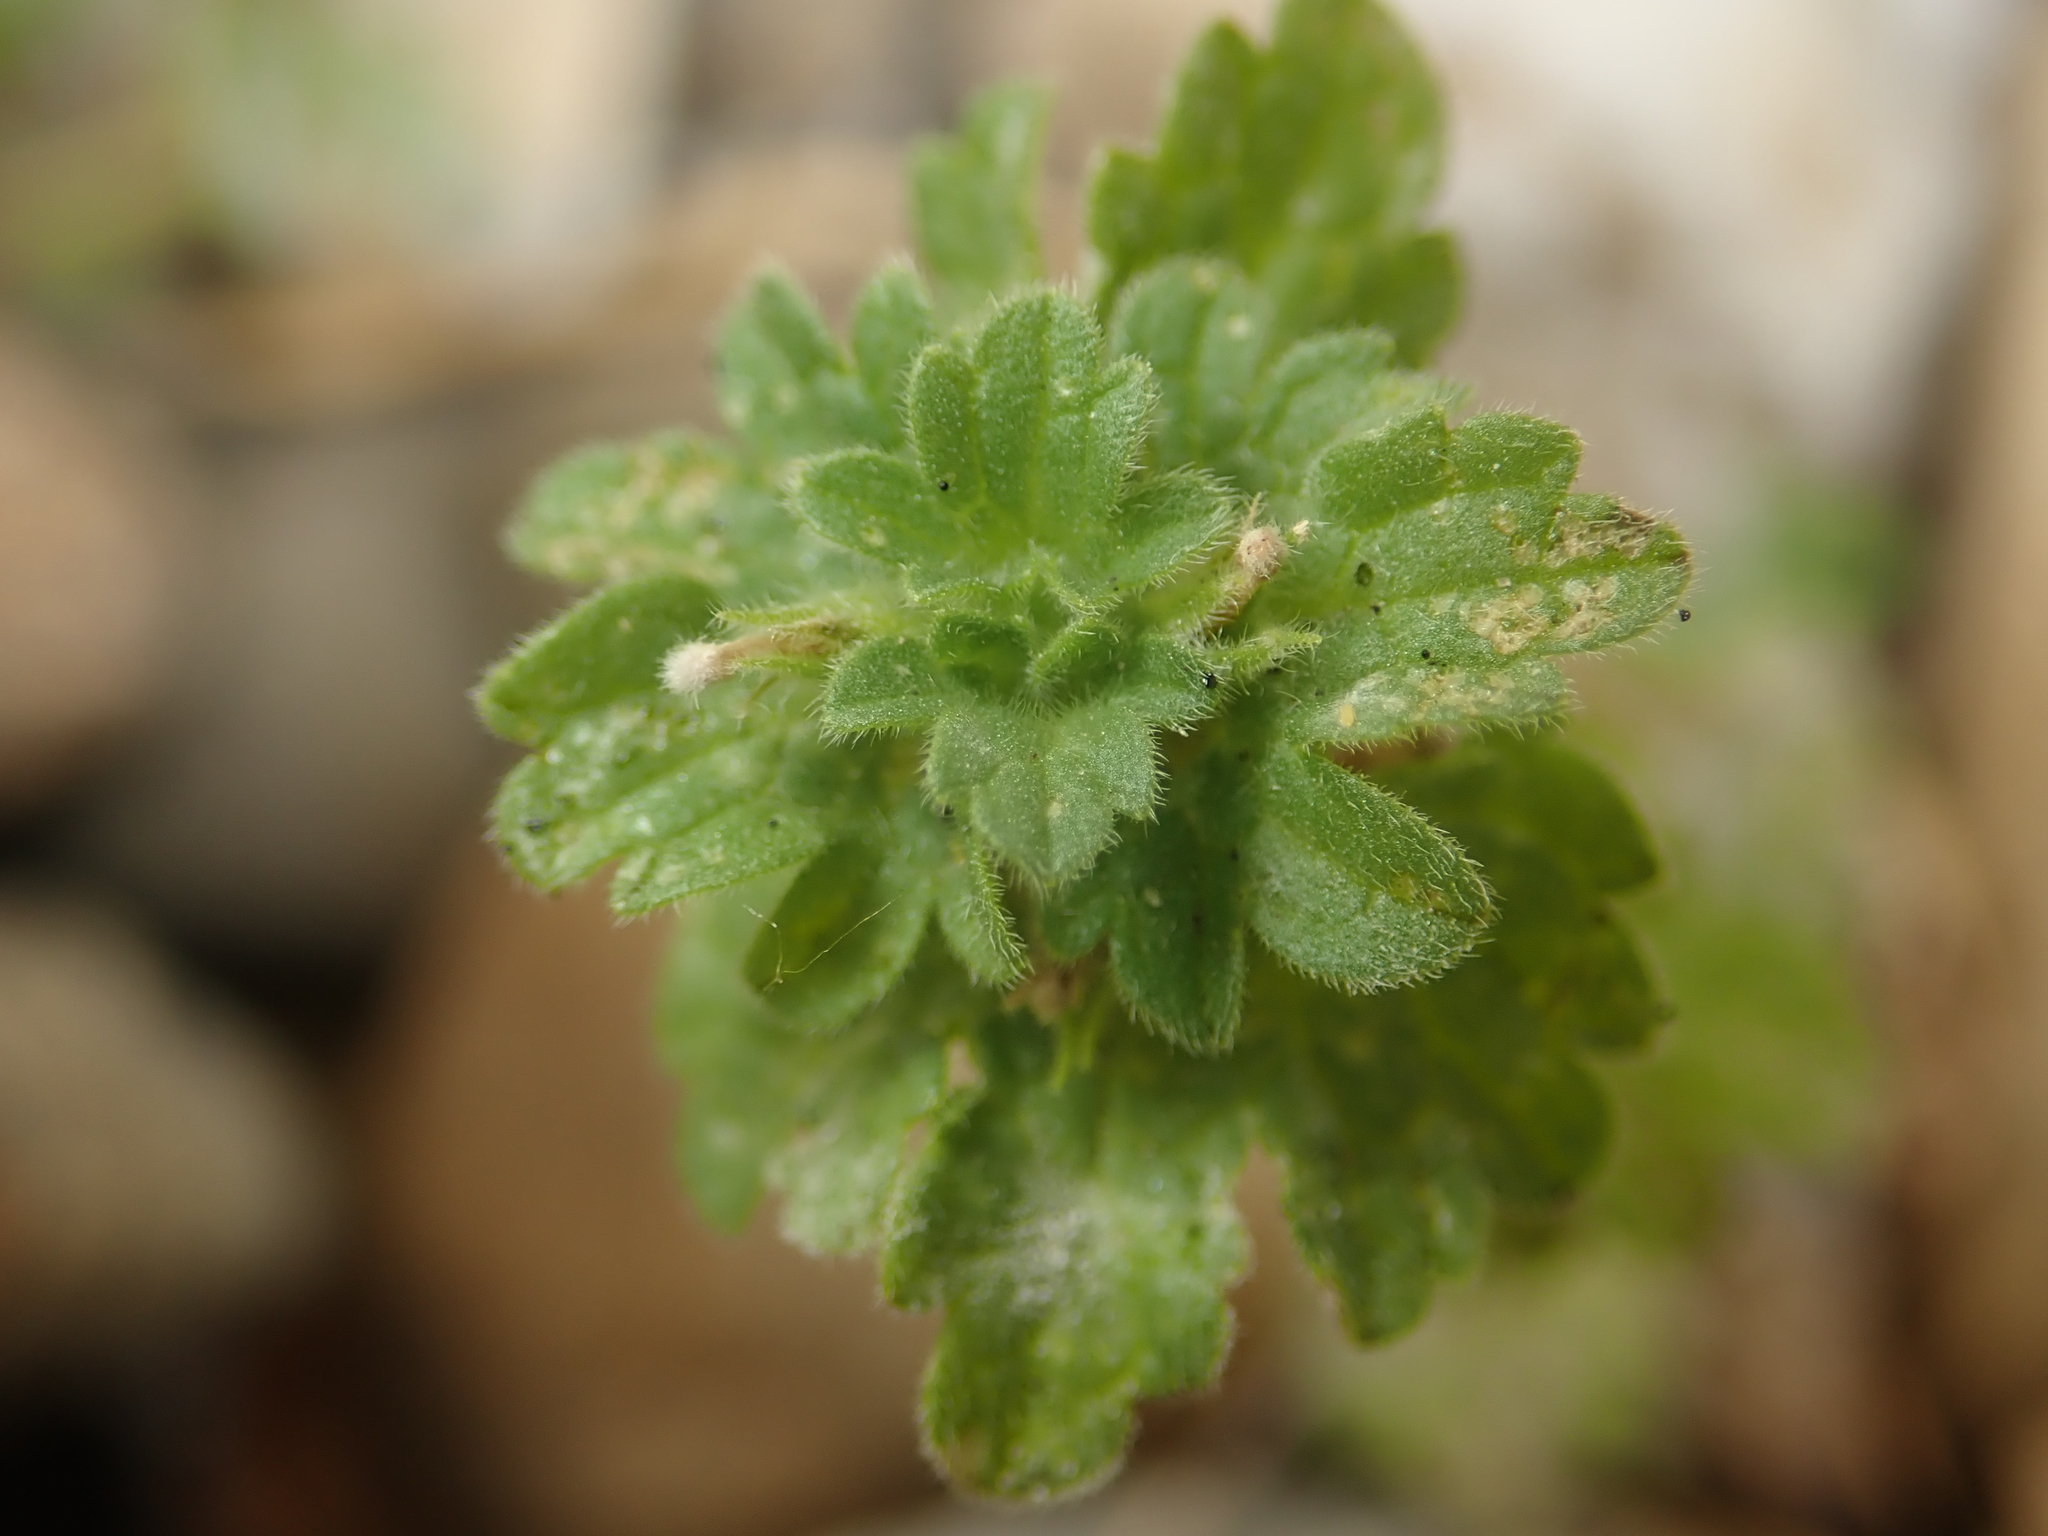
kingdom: Plantae
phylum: Tracheophyta
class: Magnoliopsida
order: Lamiales
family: Lamiaceae
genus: Lamium
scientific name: Lamium amplexicaule
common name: Henbit dead-nettle
